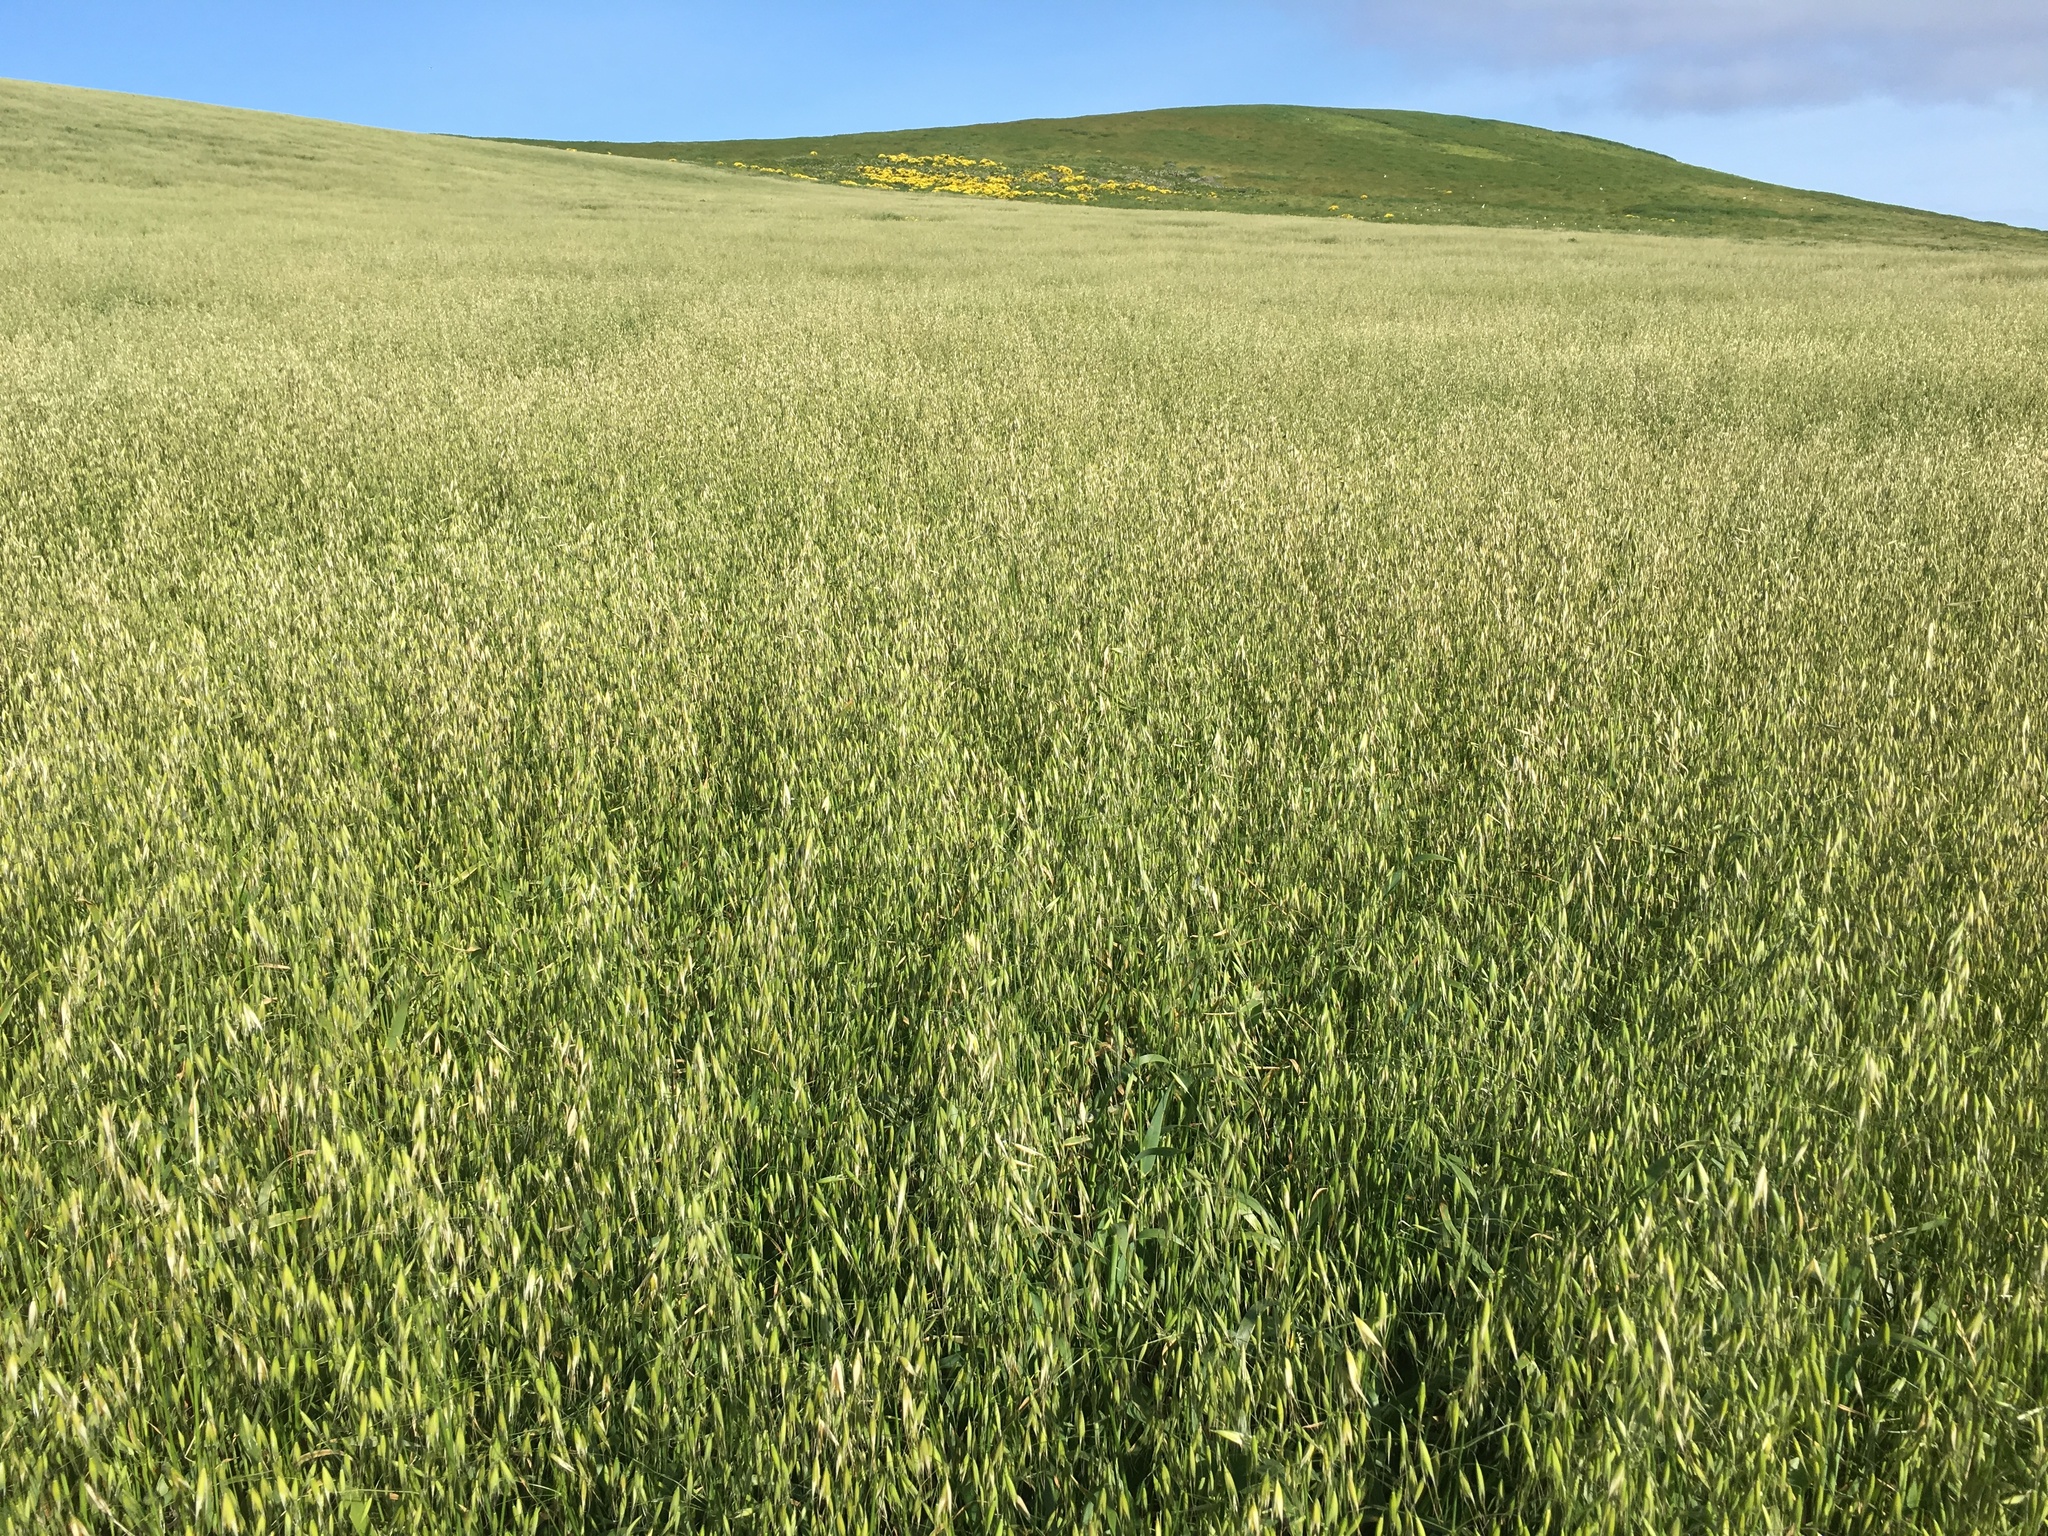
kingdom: Plantae
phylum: Tracheophyta
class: Liliopsida
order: Poales
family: Poaceae
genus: Avena
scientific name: Avena barbata
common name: Slender oat
